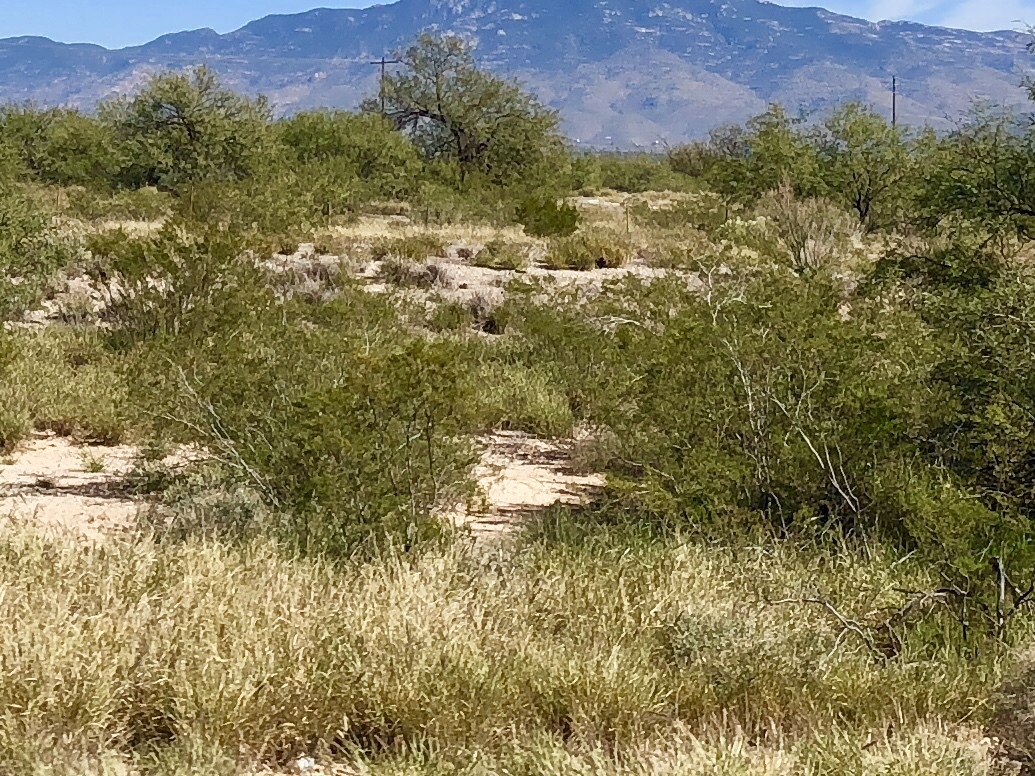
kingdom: Plantae
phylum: Tracheophyta
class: Magnoliopsida
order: Zygophyllales
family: Zygophyllaceae
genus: Larrea
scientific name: Larrea tridentata
